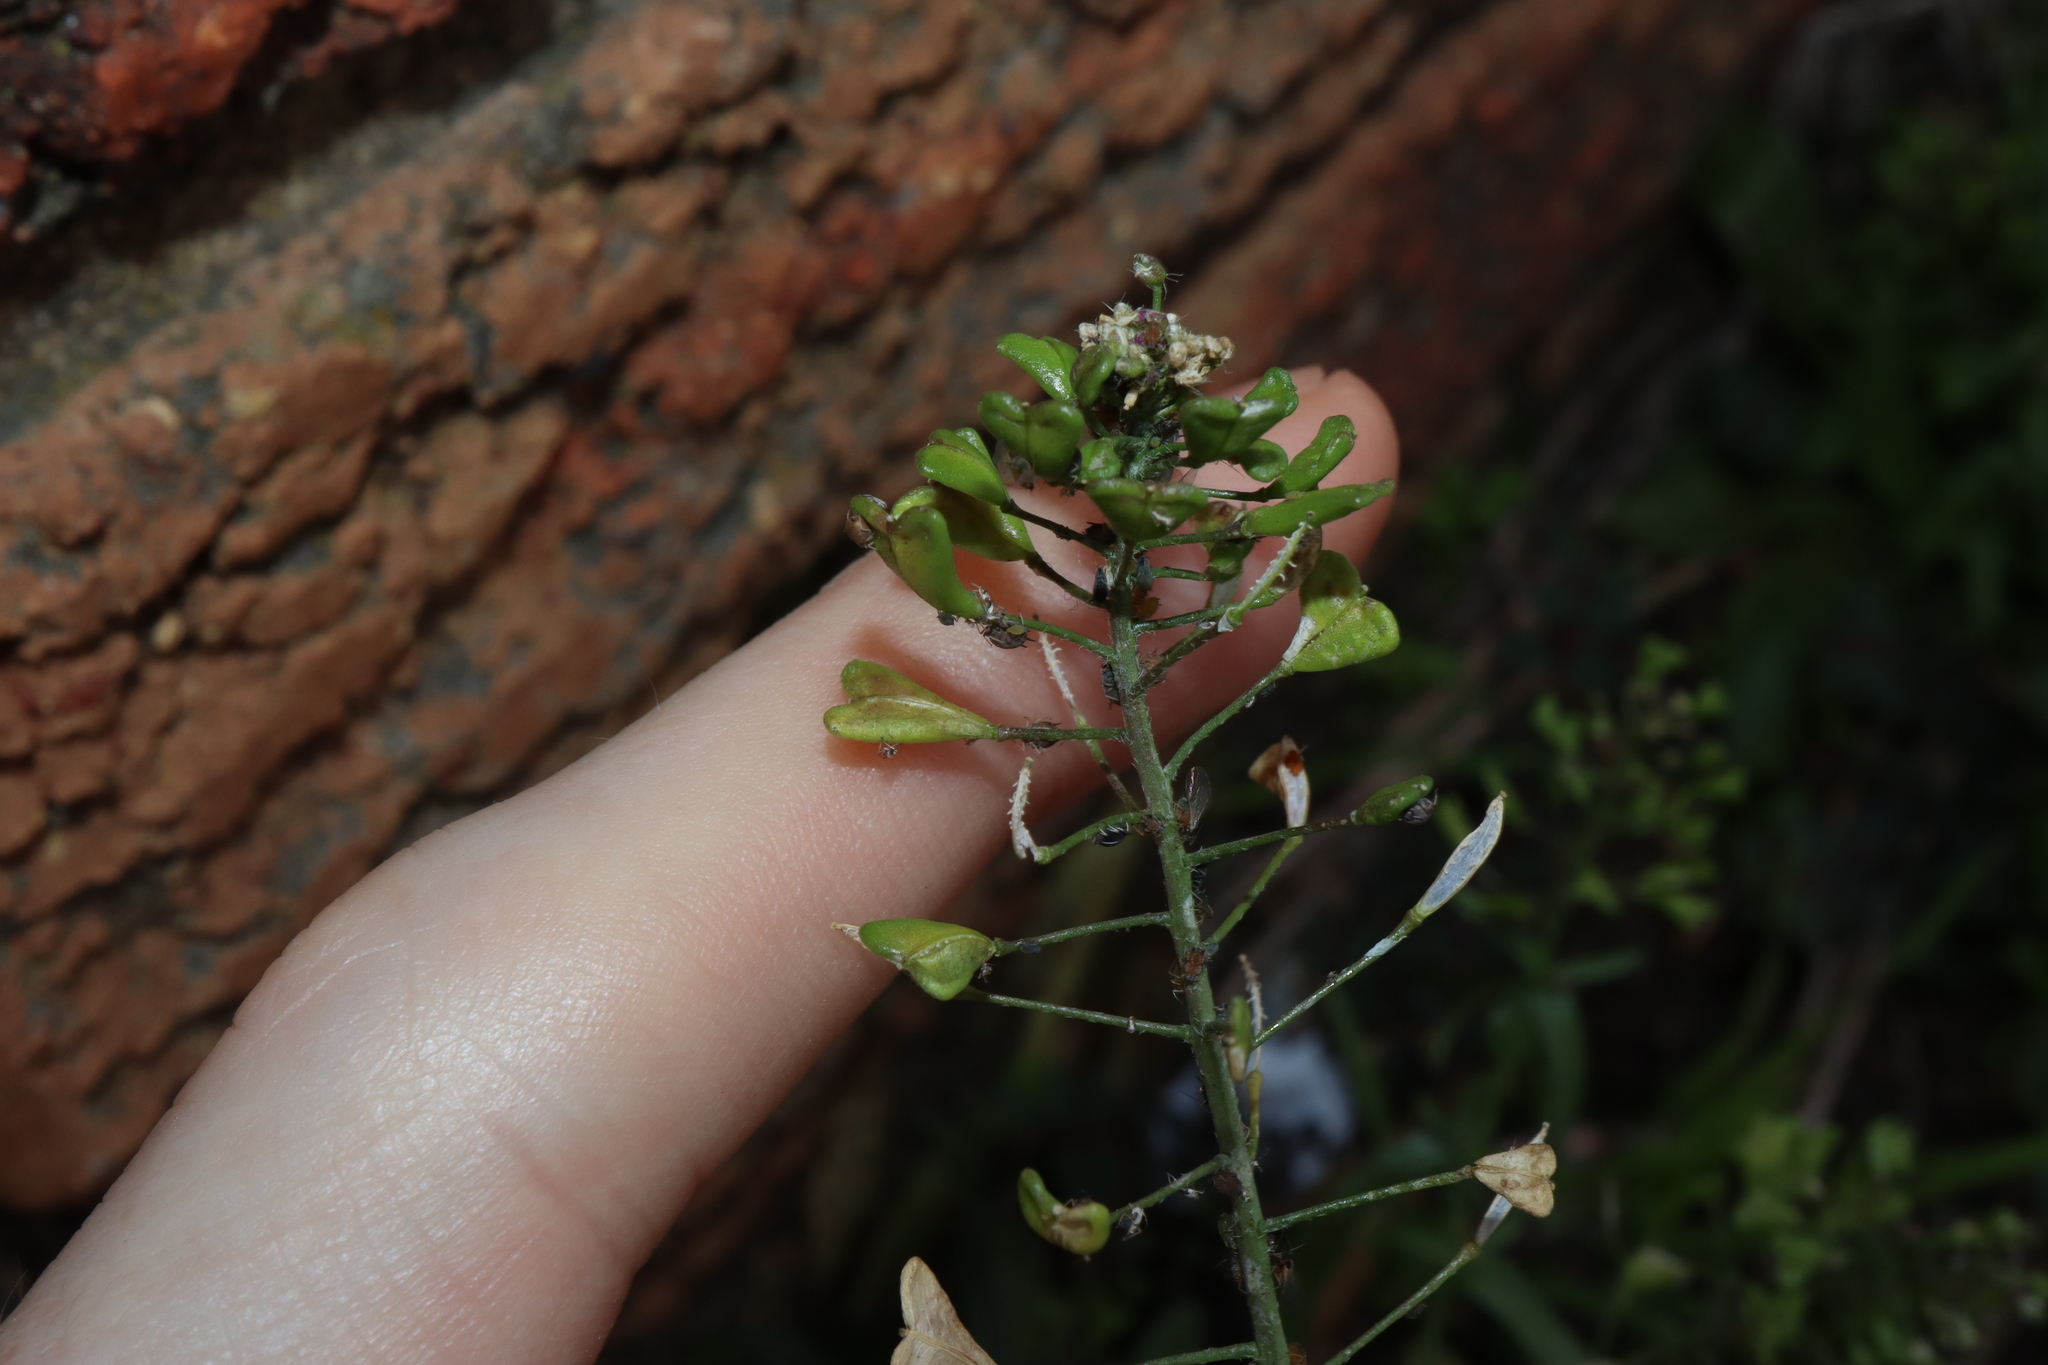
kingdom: Plantae
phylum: Tracheophyta
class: Magnoliopsida
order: Brassicales
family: Brassicaceae
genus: Capsella
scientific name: Capsella bursa-pastoris
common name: Shepherd's purse
